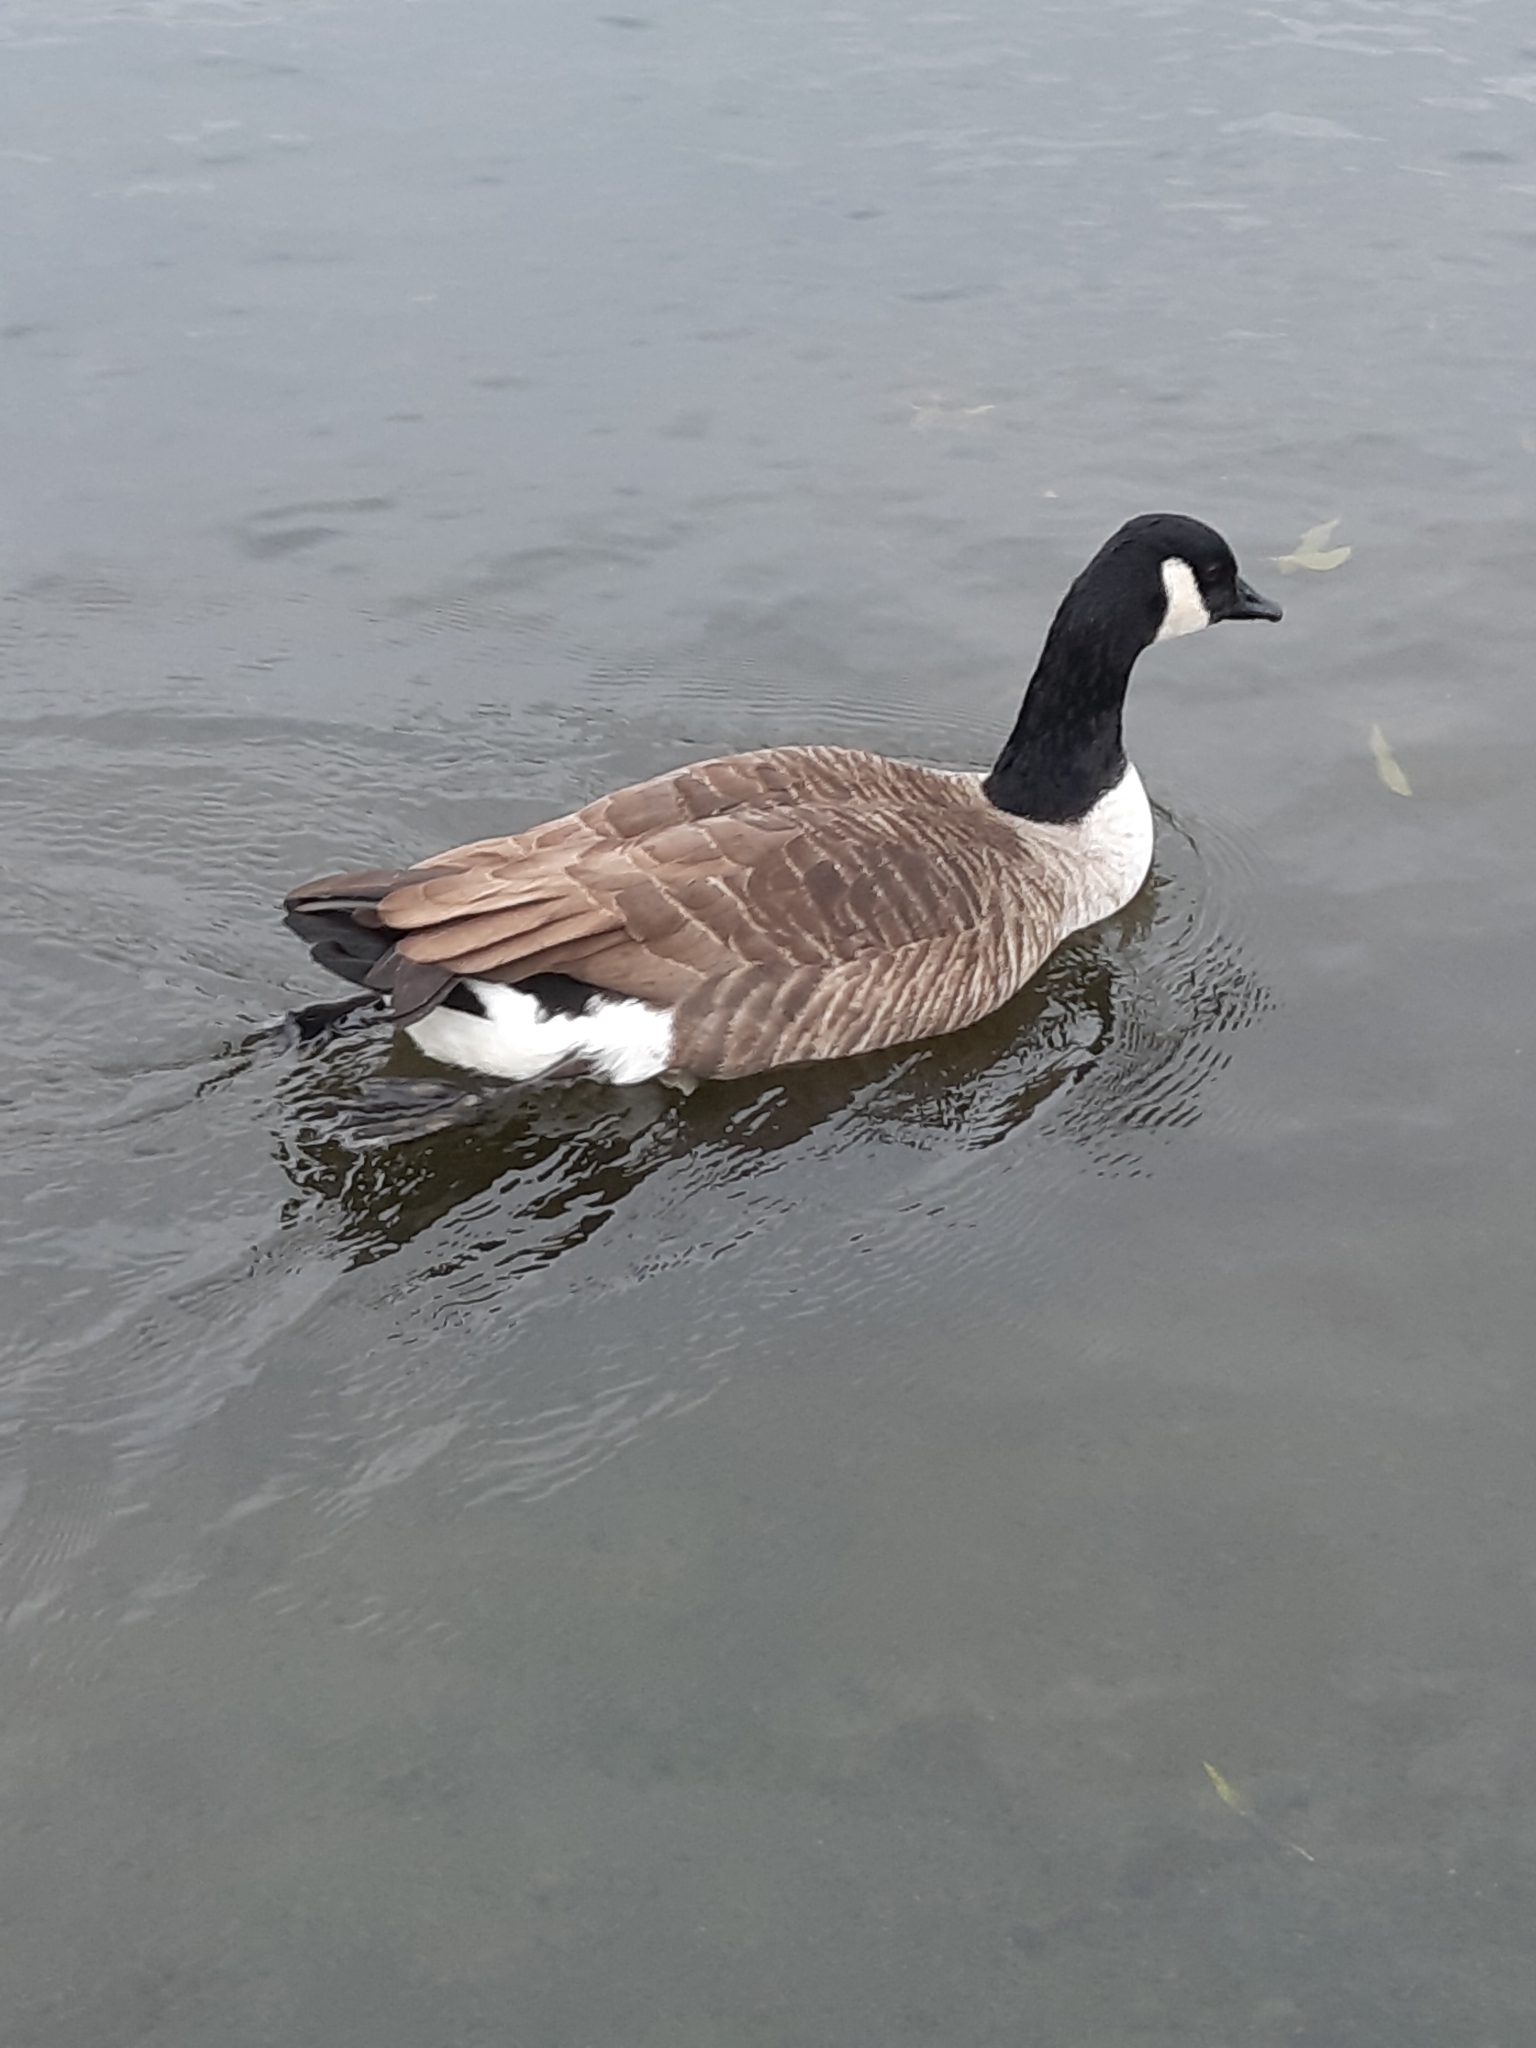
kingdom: Animalia
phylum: Chordata
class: Aves
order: Anseriformes
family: Anatidae
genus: Branta
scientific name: Branta canadensis
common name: Canada goose
